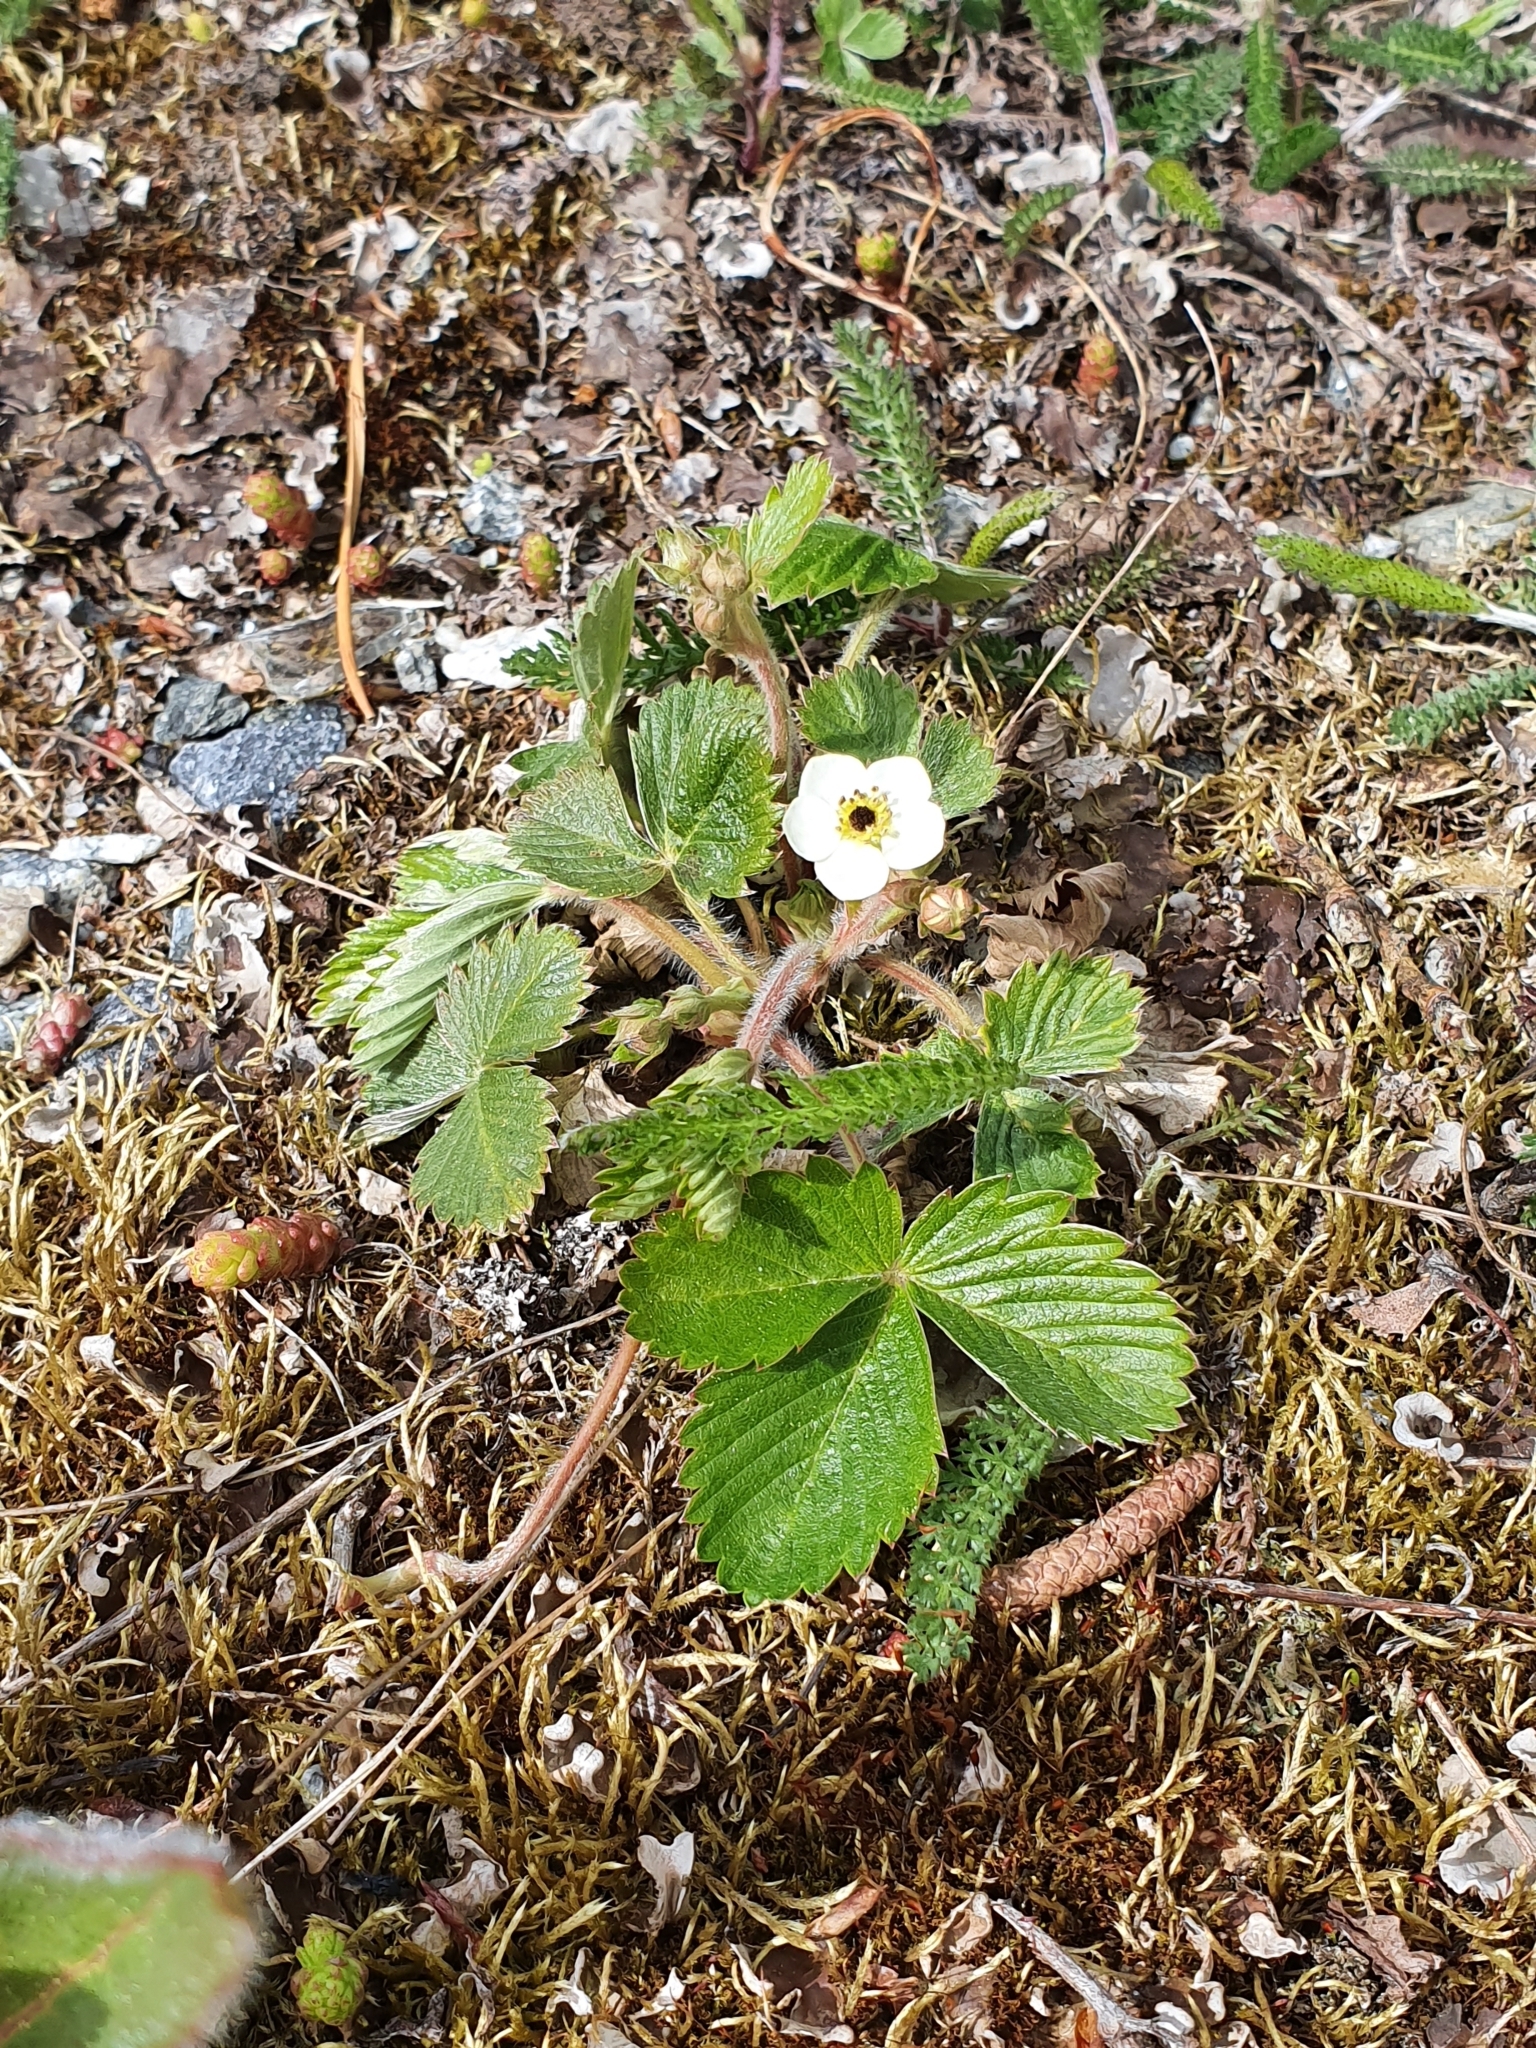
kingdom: Plantae
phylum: Tracheophyta
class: Magnoliopsida
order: Rosales
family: Rosaceae
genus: Fragaria
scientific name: Fragaria vesca
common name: Wild strawberry
